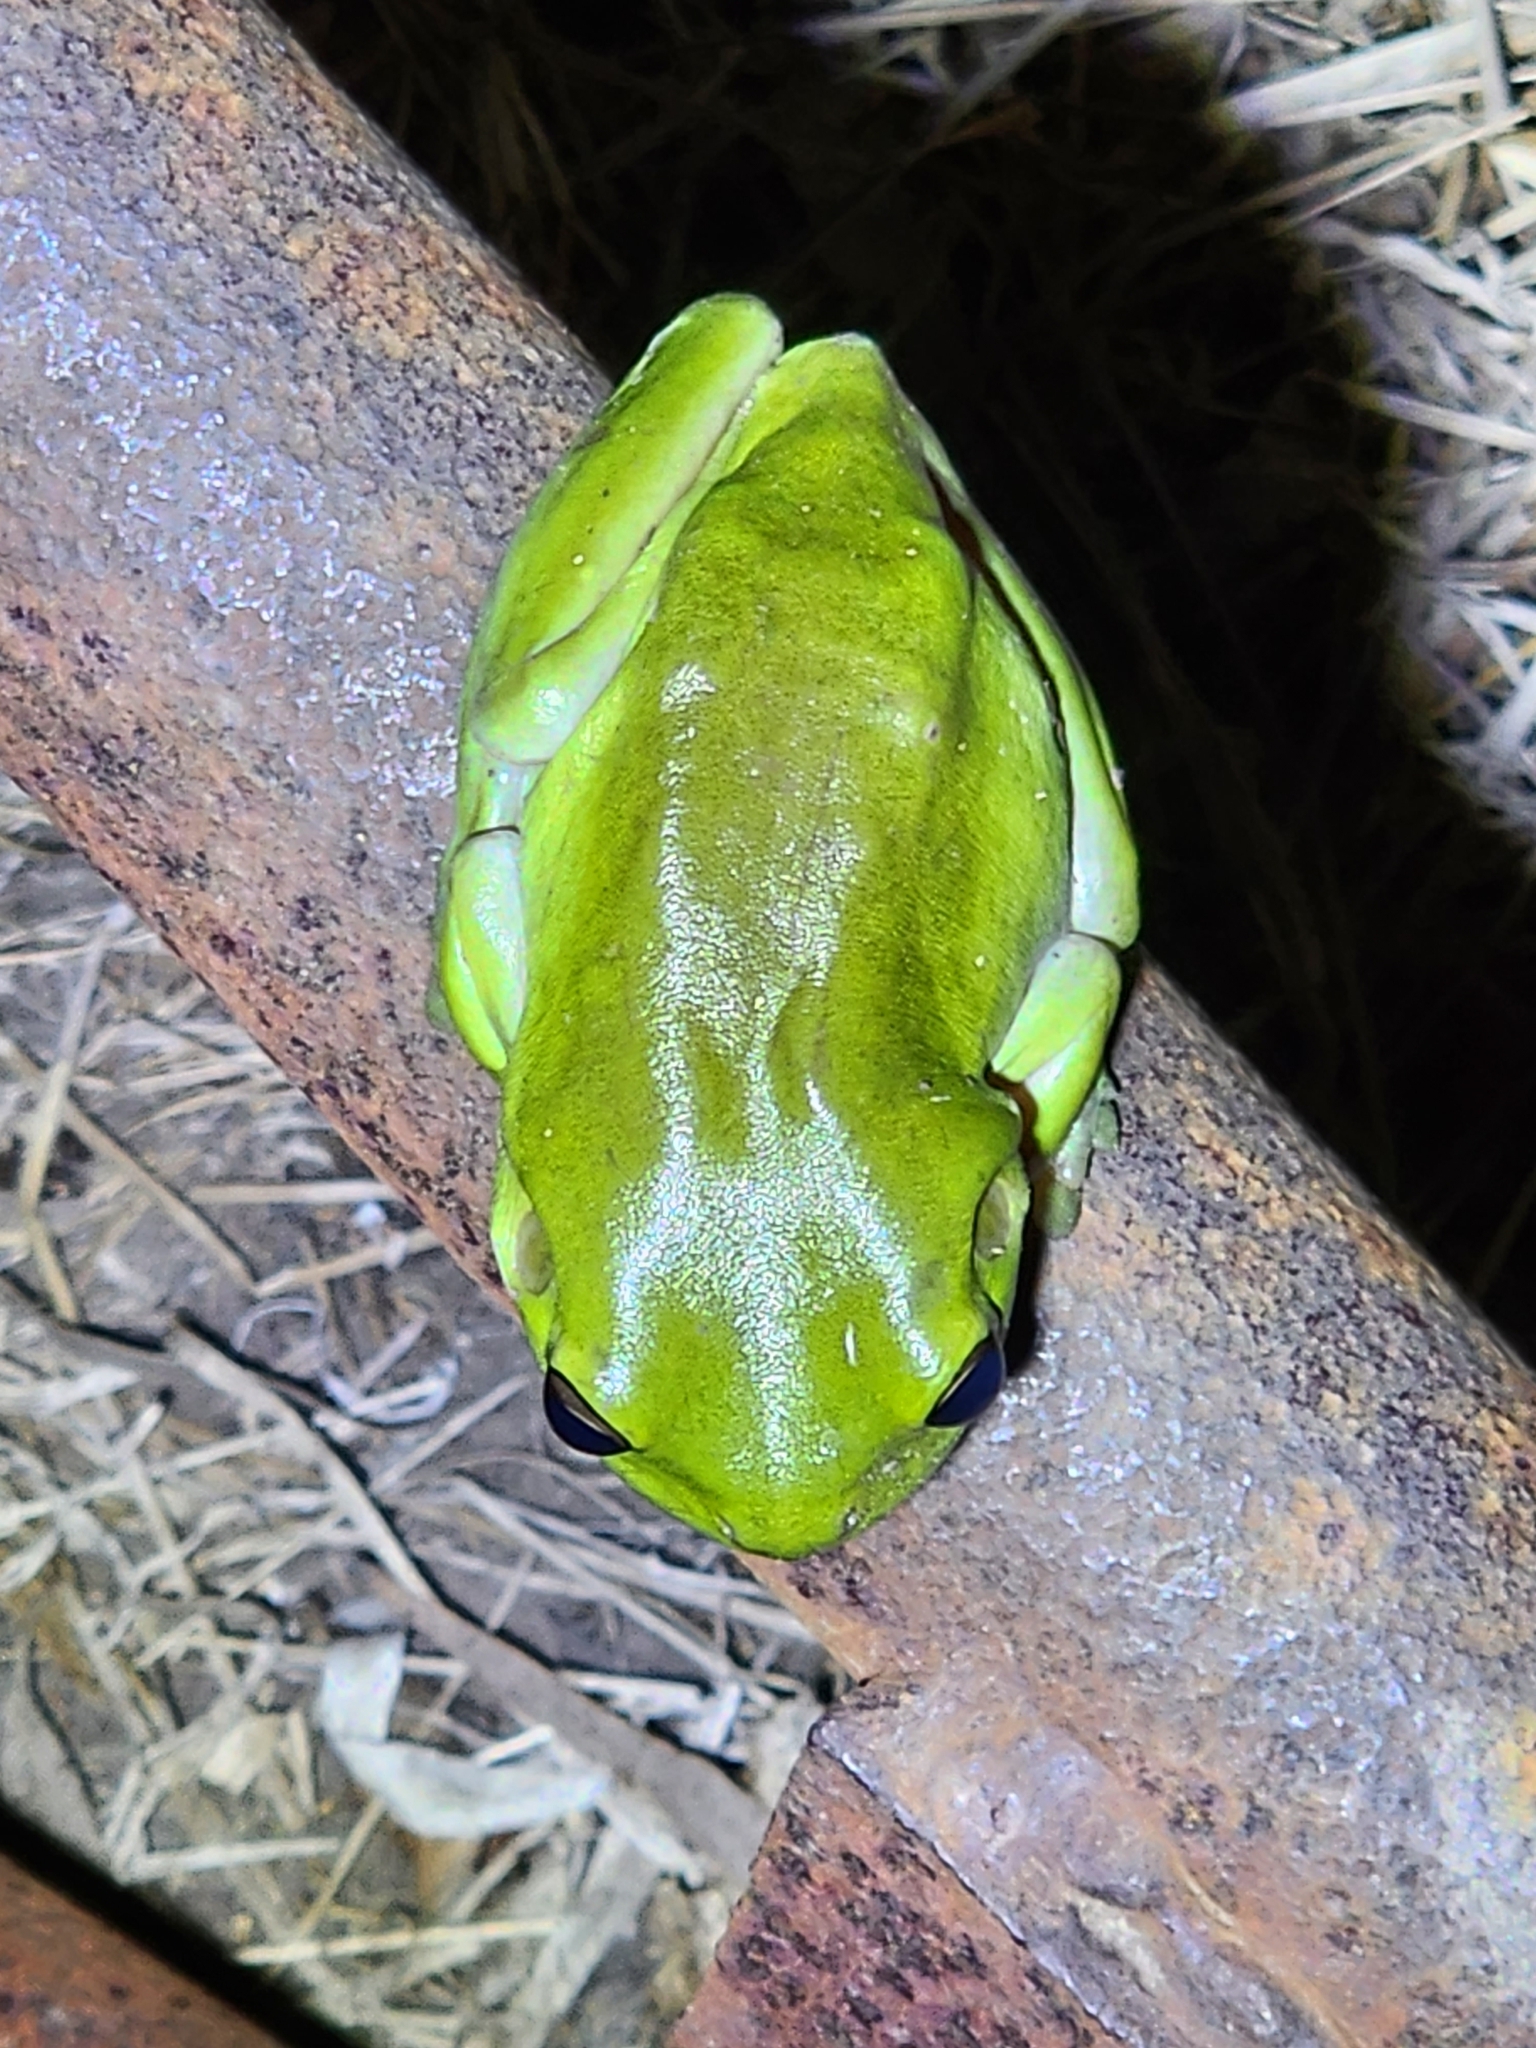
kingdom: Animalia
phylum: Chordata
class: Amphibia
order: Anura
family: Pelodryadidae
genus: Ranoidea
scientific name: Ranoidea caerulea
